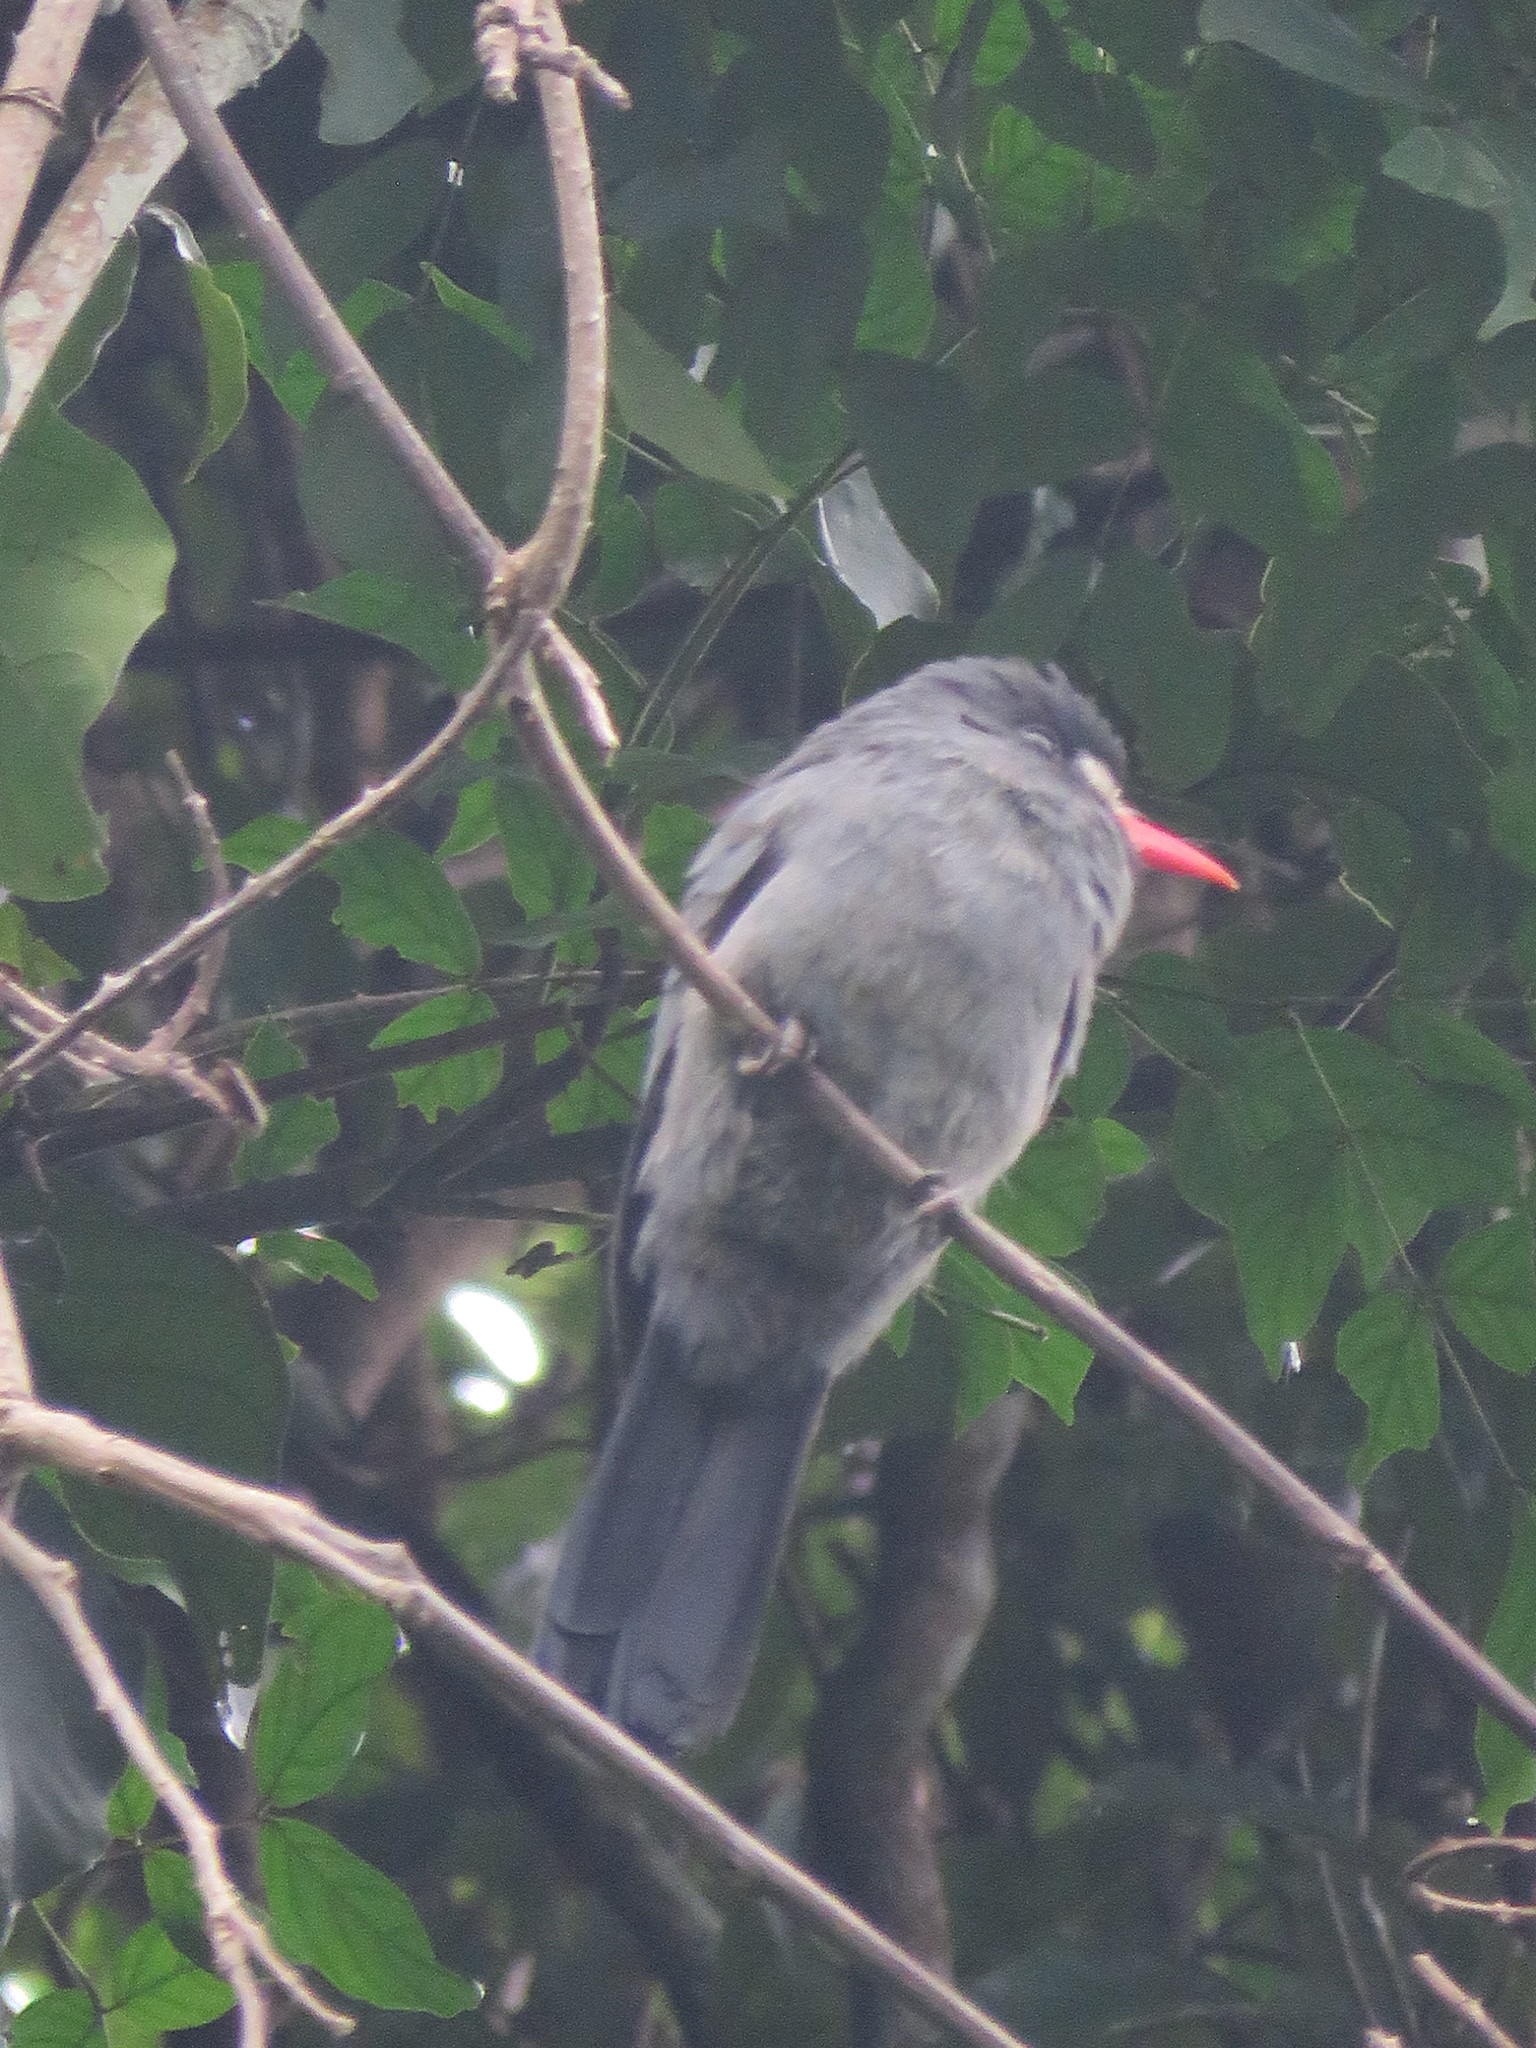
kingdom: Animalia
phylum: Chordata
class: Aves
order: Piciformes
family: Bucconidae
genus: Monasa
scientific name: Monasa morphoeus
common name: White-fronted nunbird
